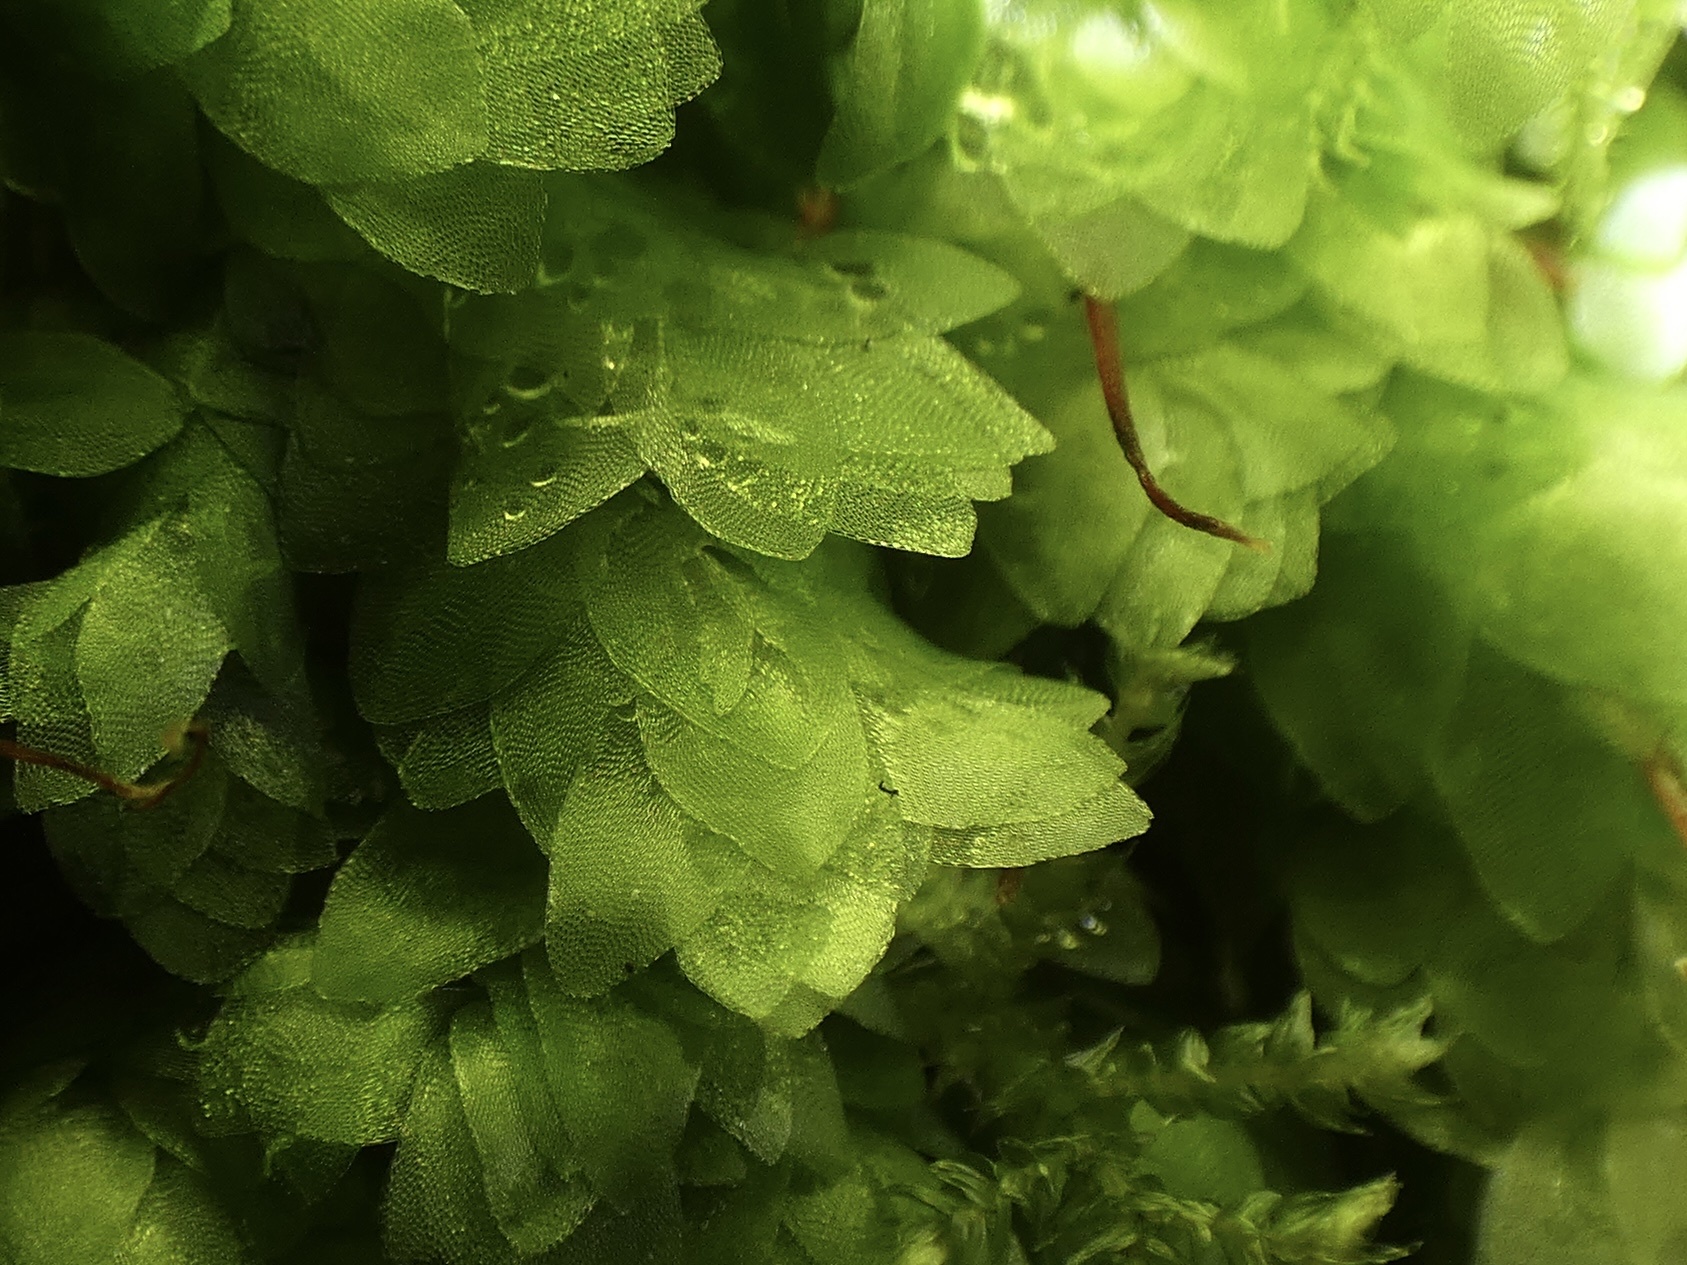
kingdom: Plantae
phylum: Bryophyta
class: Bryopsida
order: Hookeriales
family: Hookeriaceae
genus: Hookeria
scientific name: Hookeria lucens
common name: Shining hookeria
